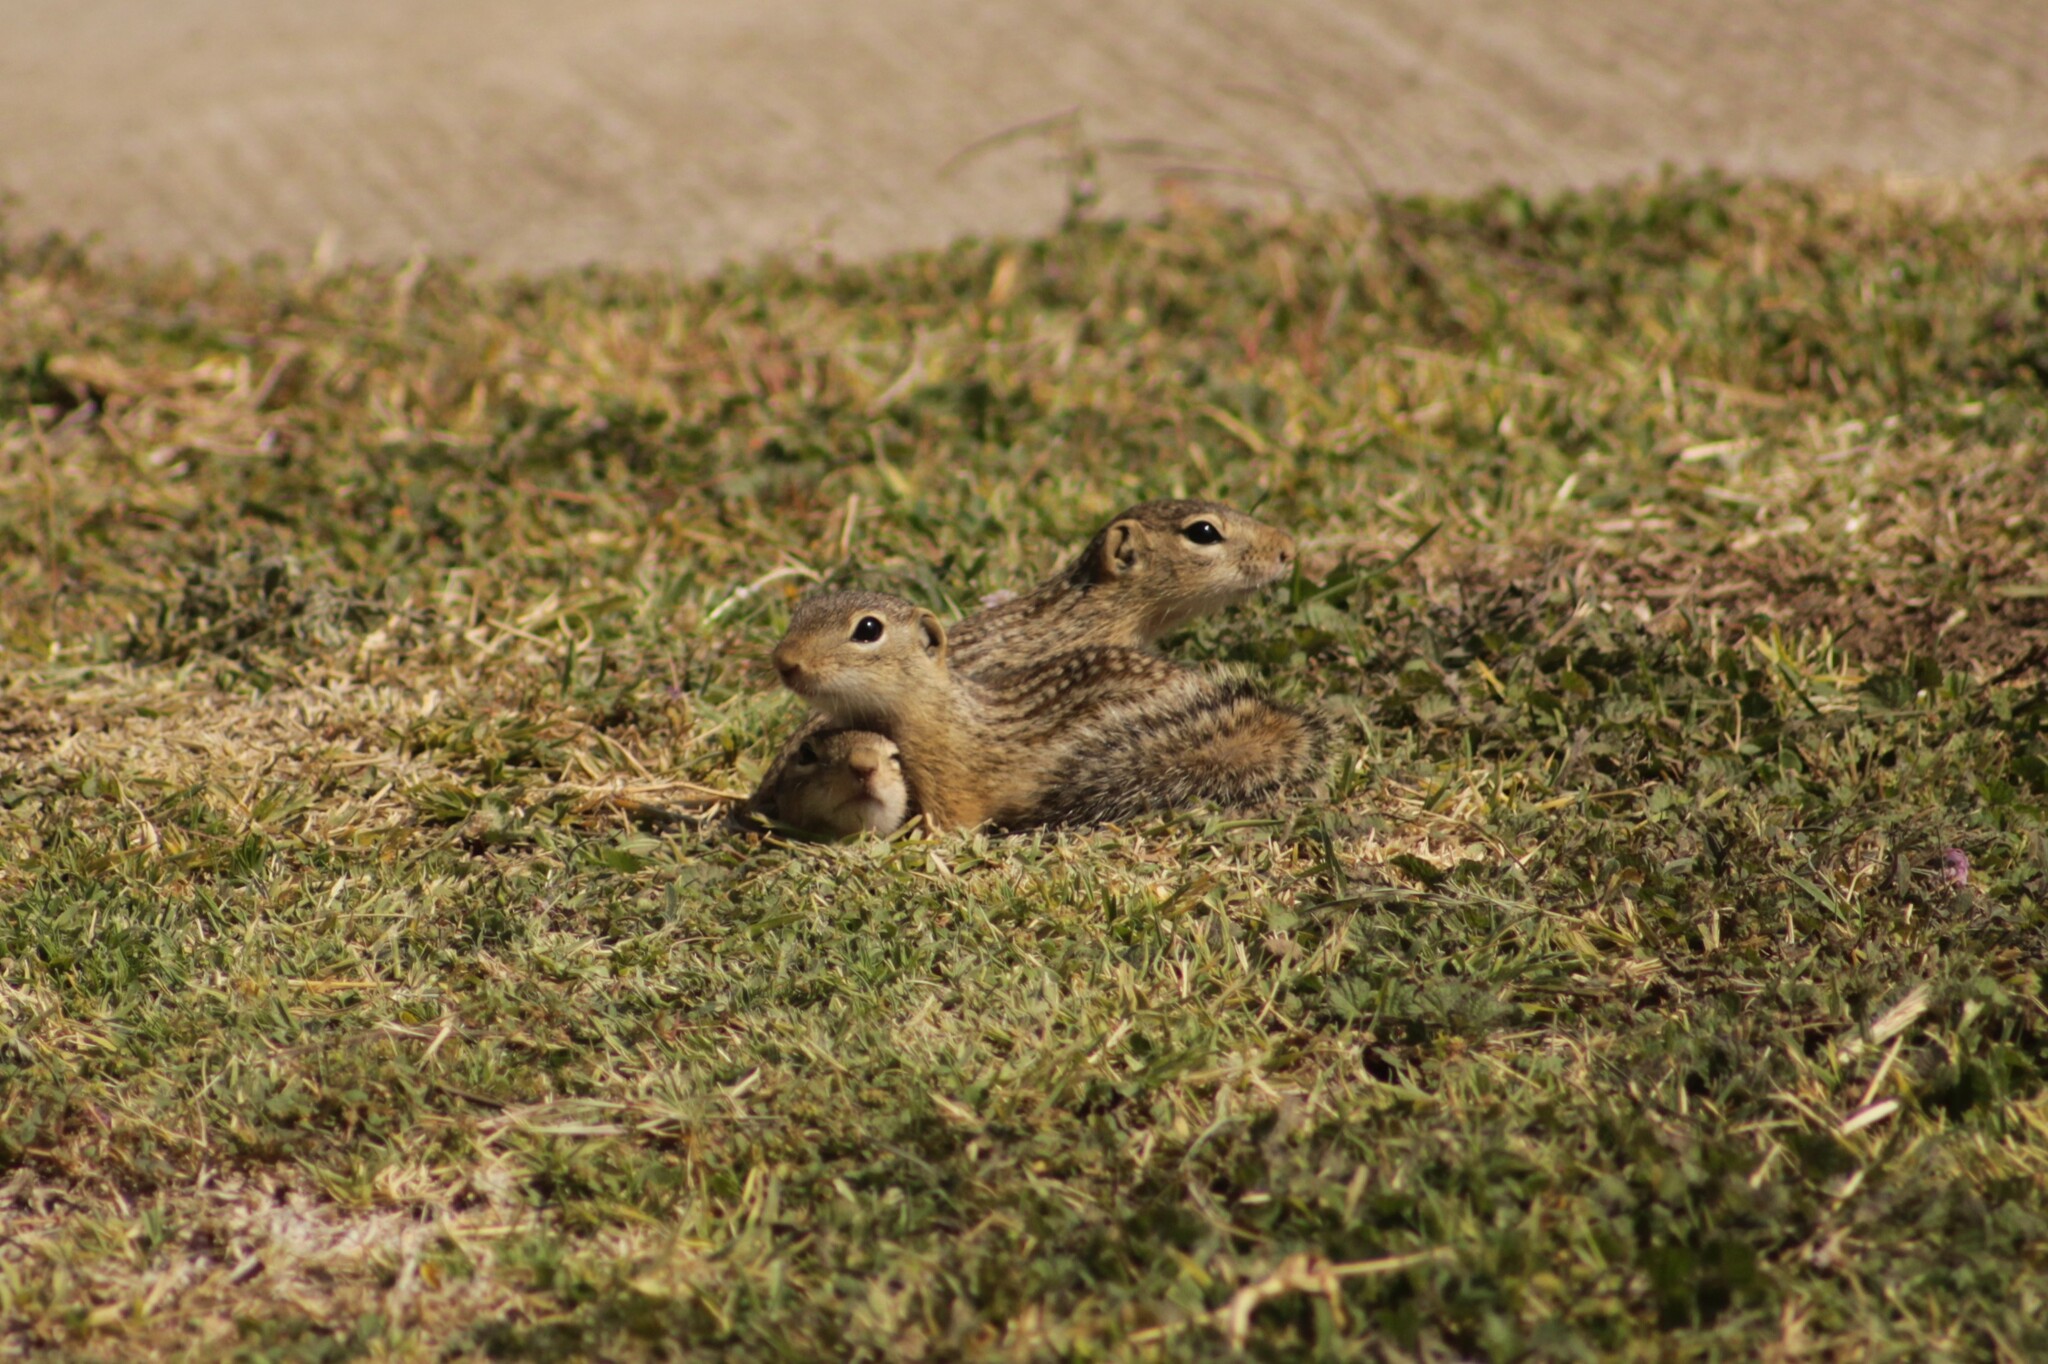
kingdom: Animalia
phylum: Chordata
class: Mammalia
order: Rodentia
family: Sciuridae
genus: Ictidomys
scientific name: Ictidomys mexicanus
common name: Mexican ground squirrel
